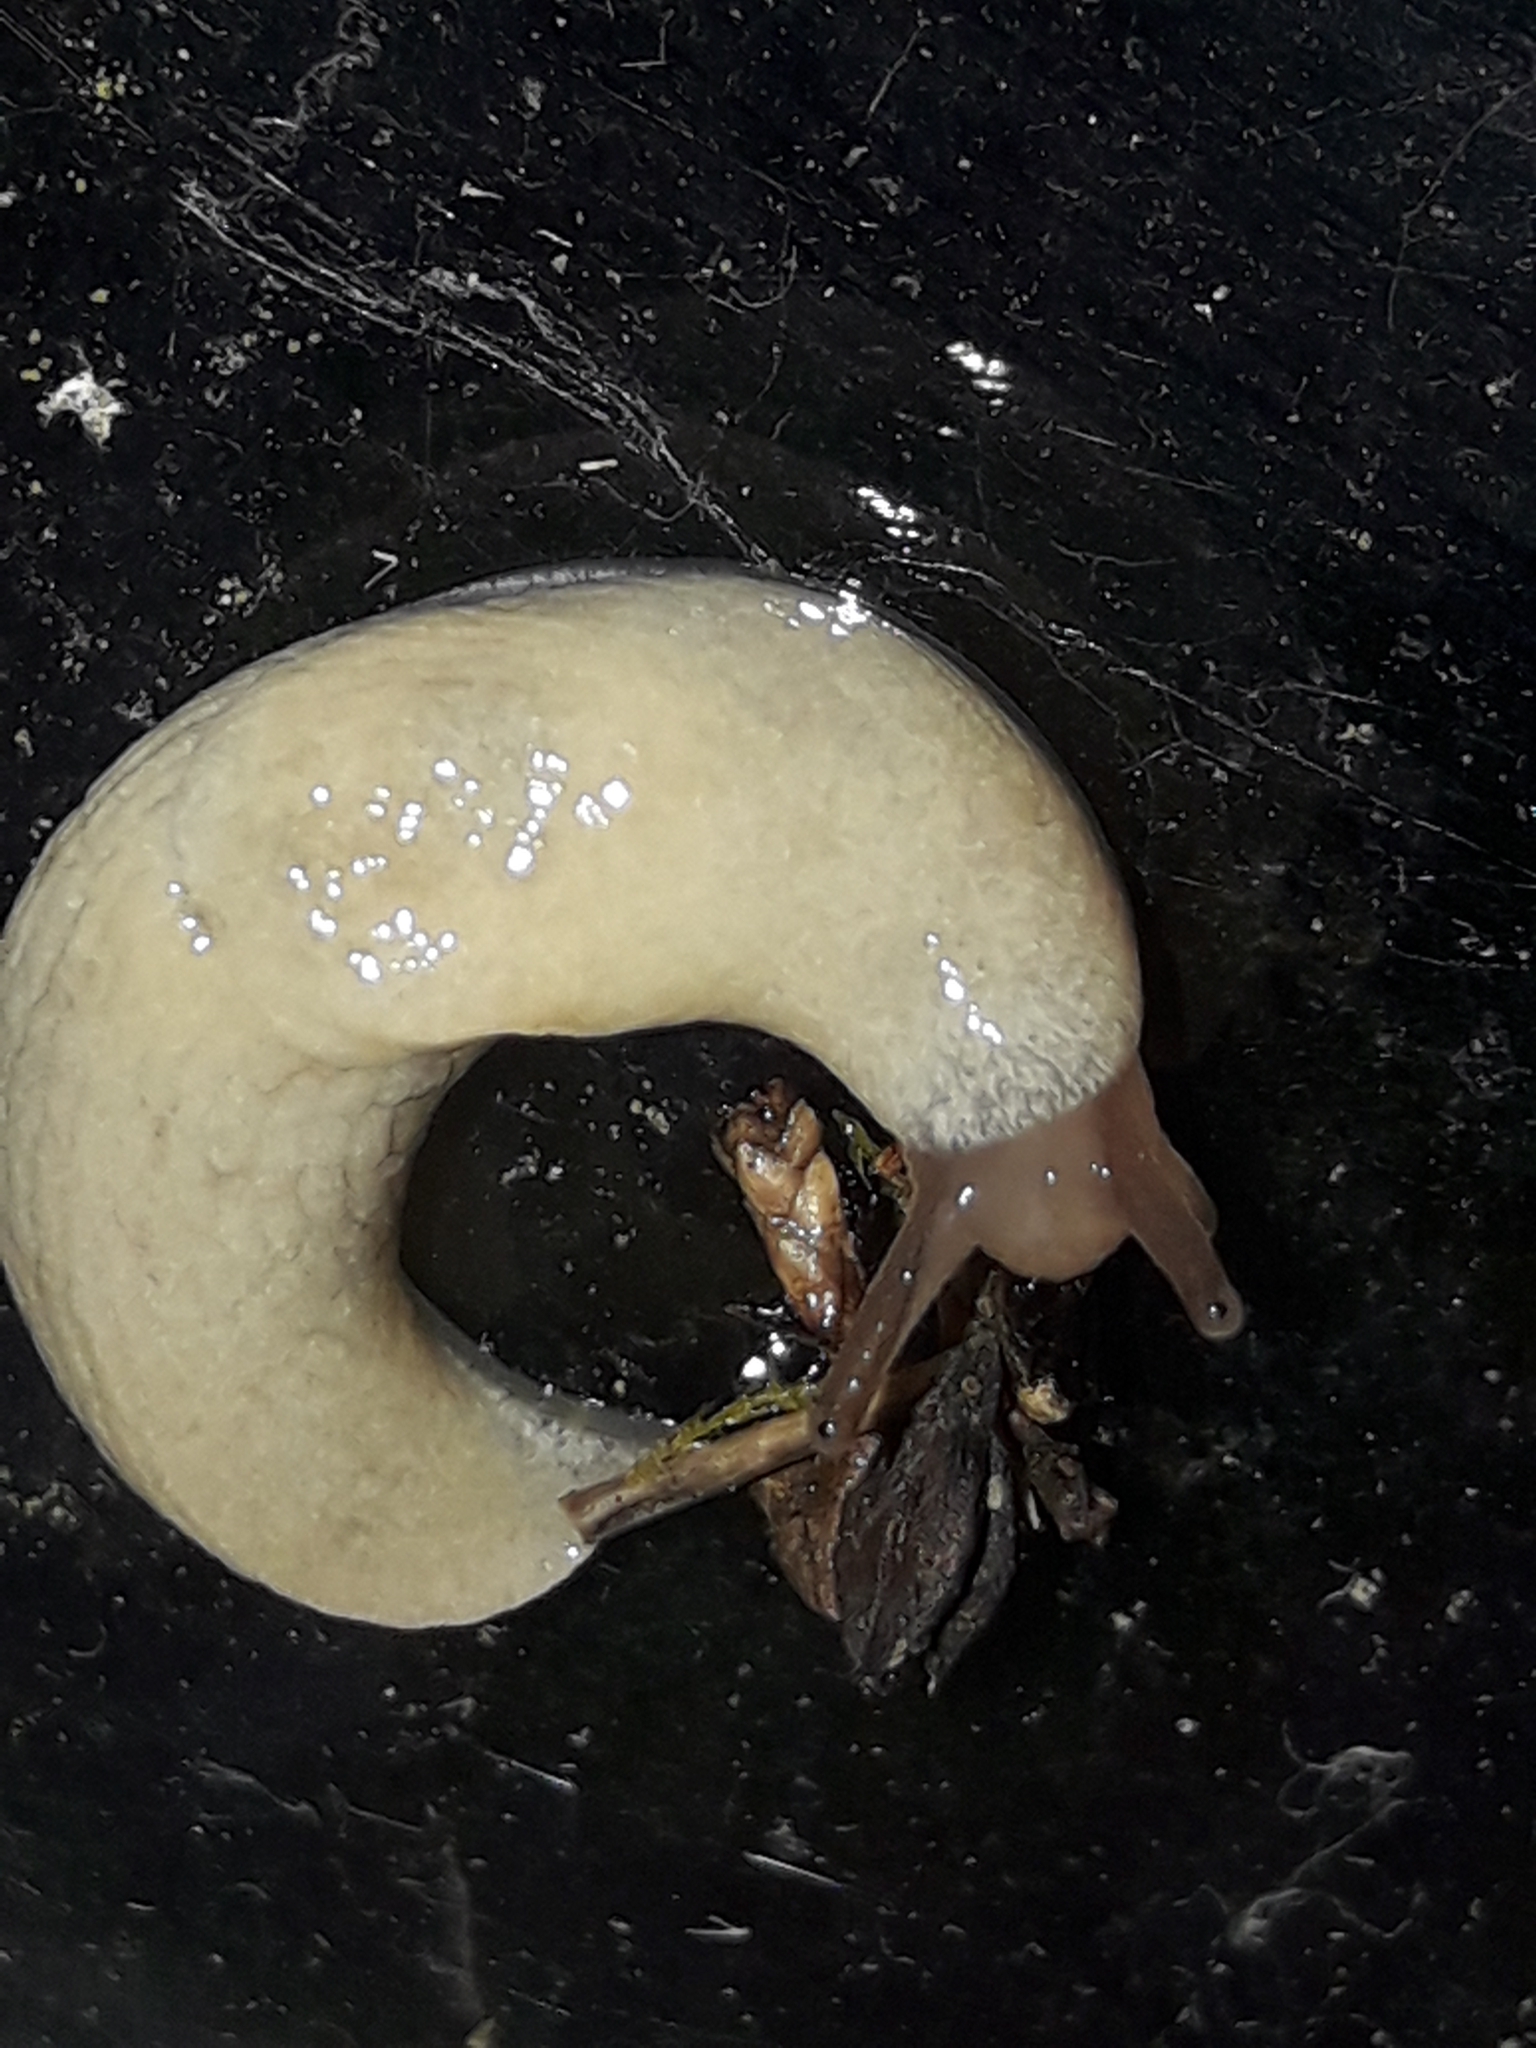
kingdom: Animalia
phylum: Mollusca
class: Gastropoda
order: Stylommatophora
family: Agriolimacidae
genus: Deroceras
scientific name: Deroceras reticulatum
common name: Gray field slug
